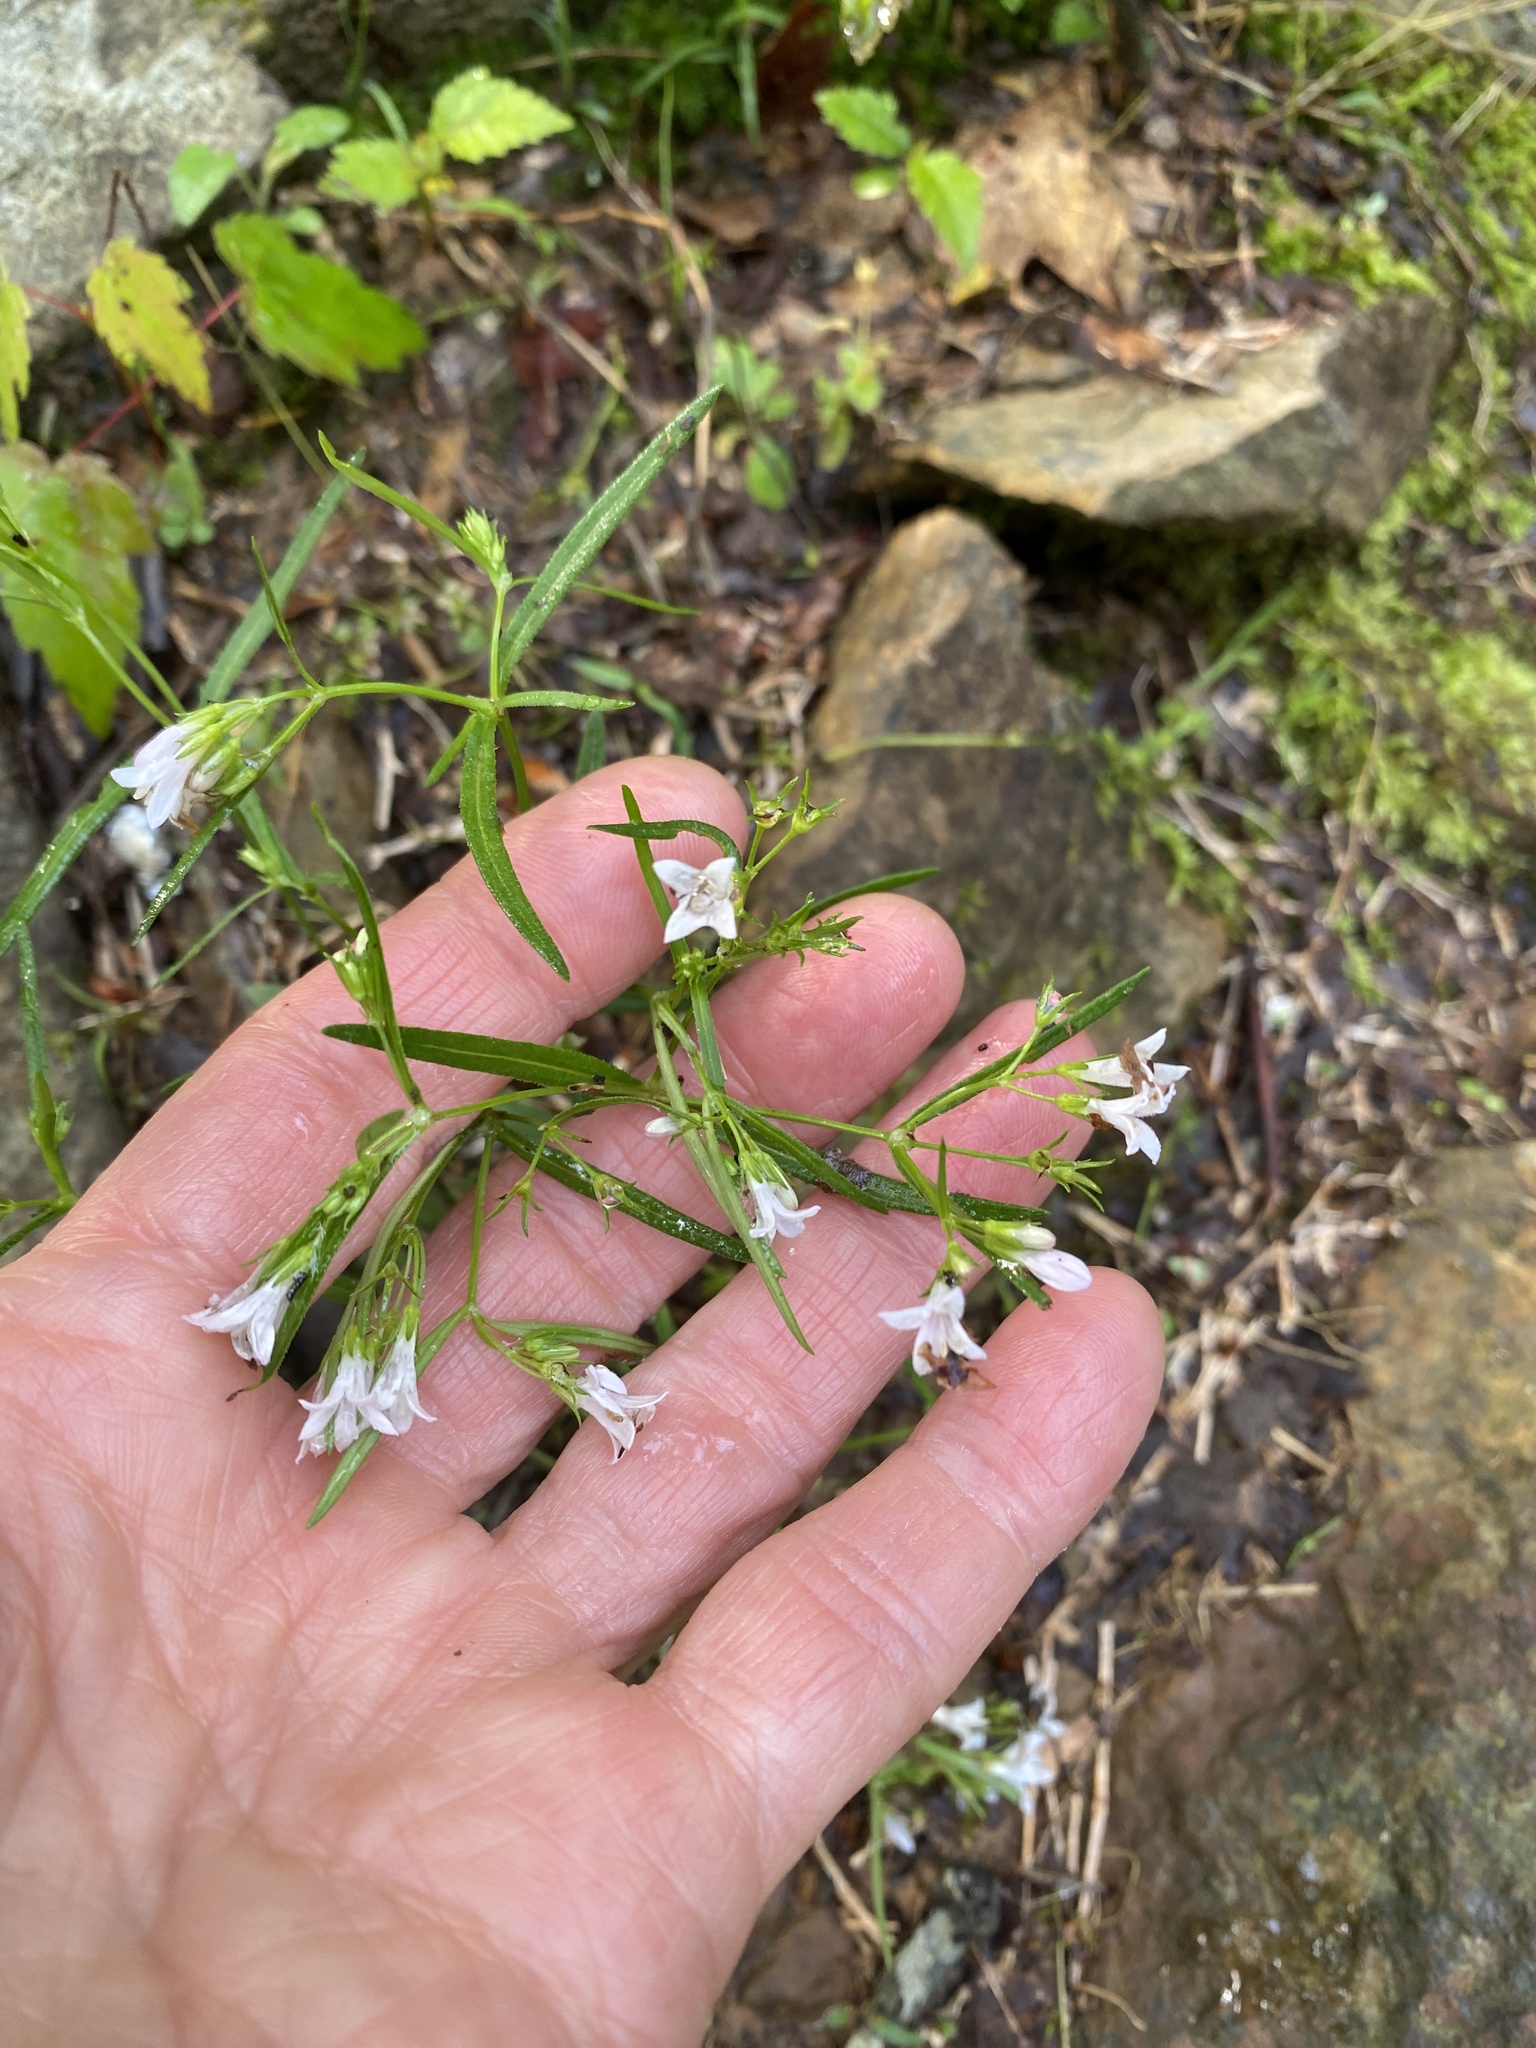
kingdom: Plantae
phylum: Tracheophyta
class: Magnoliopsida
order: Gentianales
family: Rubiaceae
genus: Houstonia
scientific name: Houstonia longifolia
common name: Long-leaved bluets
